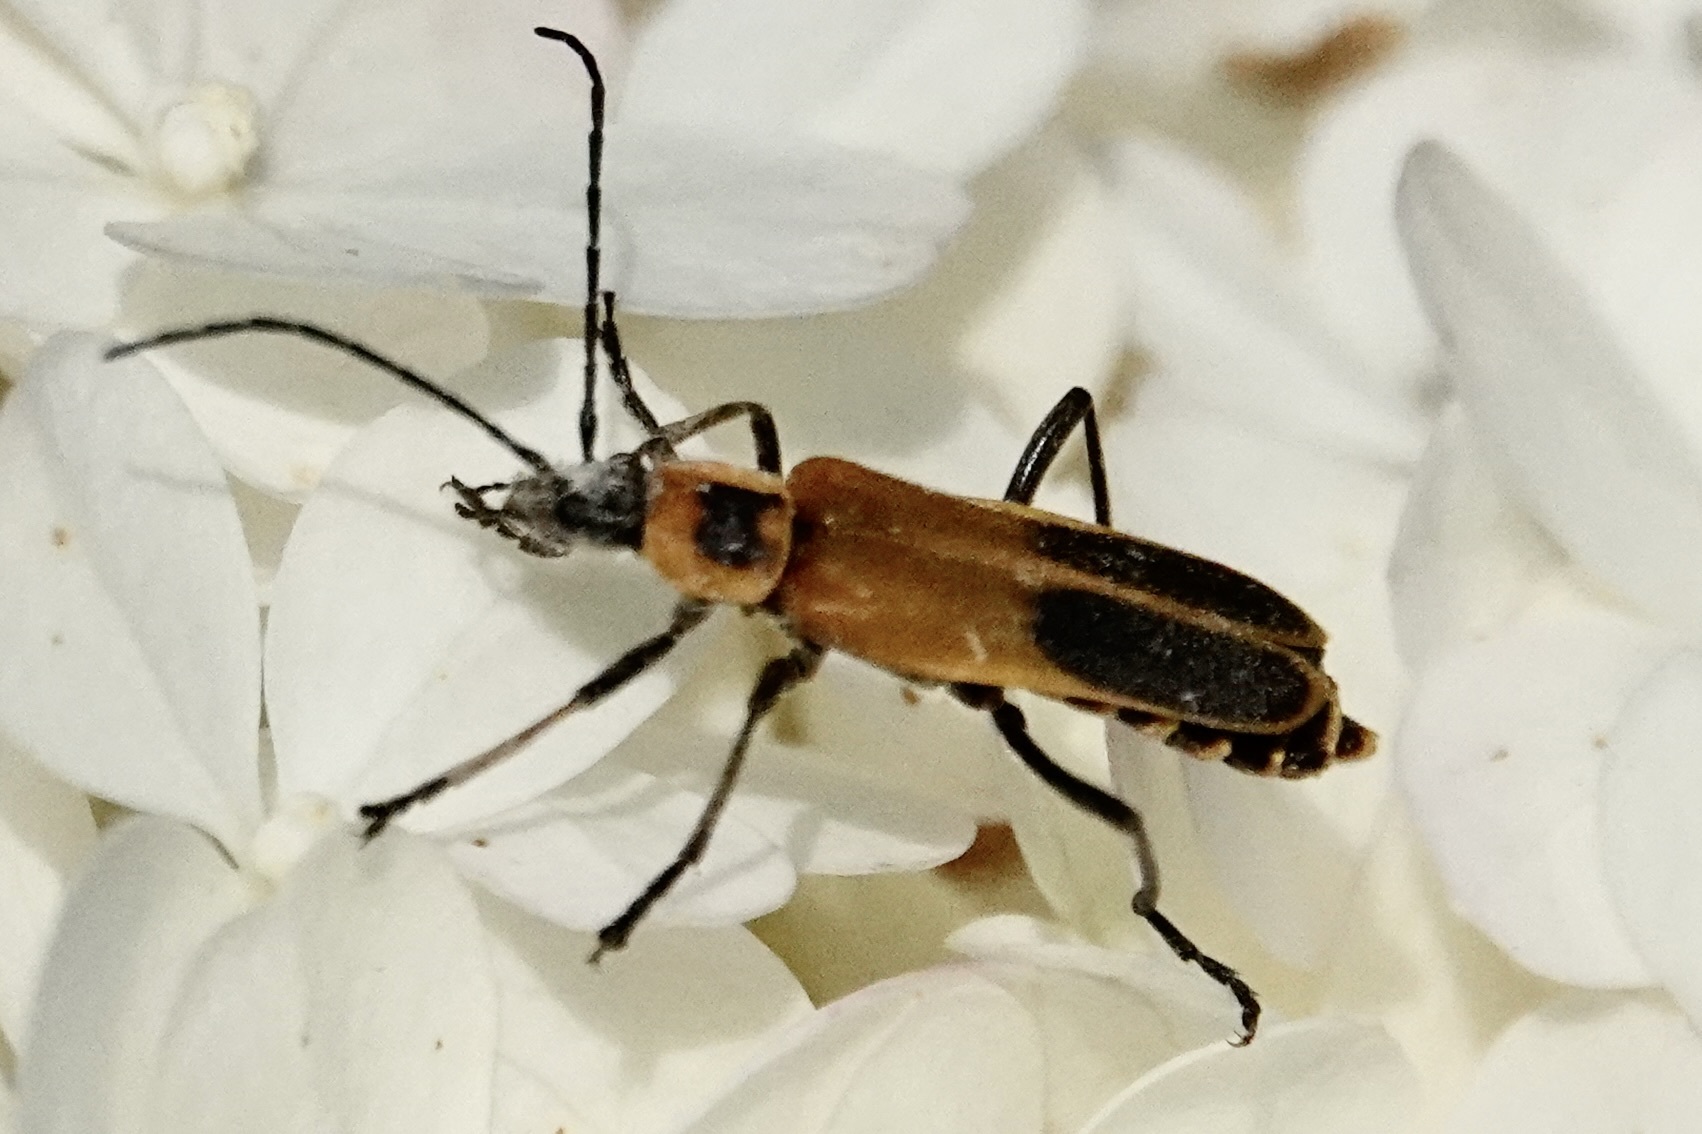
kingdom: Animalia
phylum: Arthropoda
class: Insecta
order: Coleoptera
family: Cantharidae
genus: Chauliognathus
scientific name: Chauliognathus pensylvanicus
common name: Goldenrod soldier beetle
